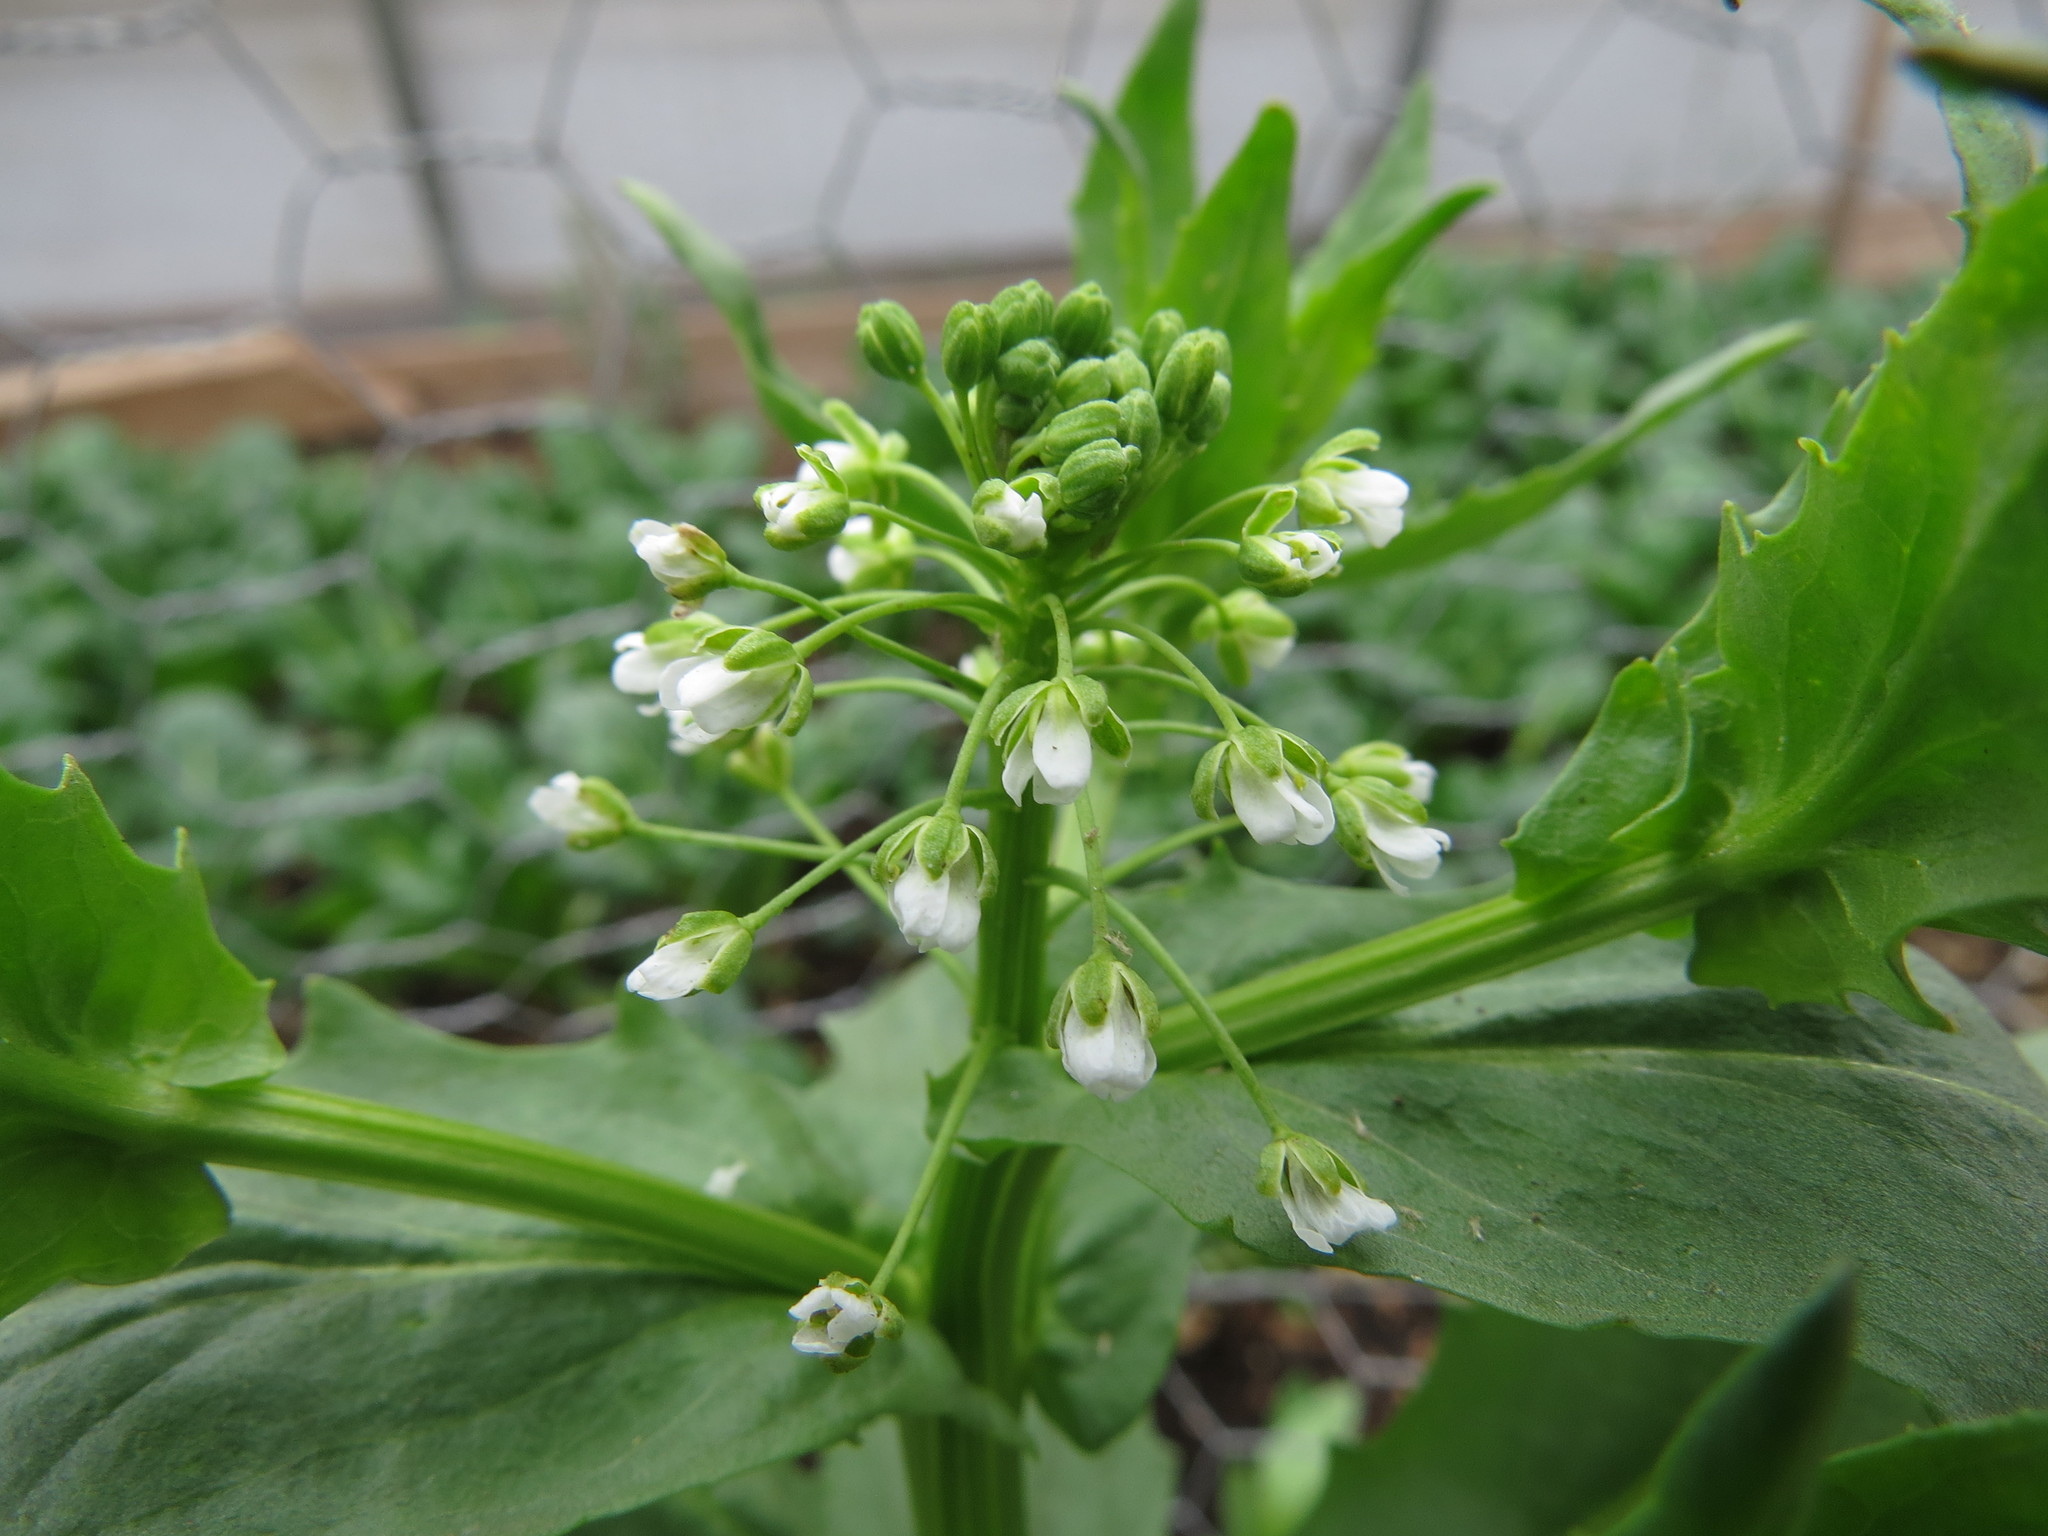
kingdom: Plantae
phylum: Tracheophyta
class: Magnoliopsida
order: Brassicales
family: Brassicaceae
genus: Thlaspi
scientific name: Thlaspi arvense
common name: Field pennycress
